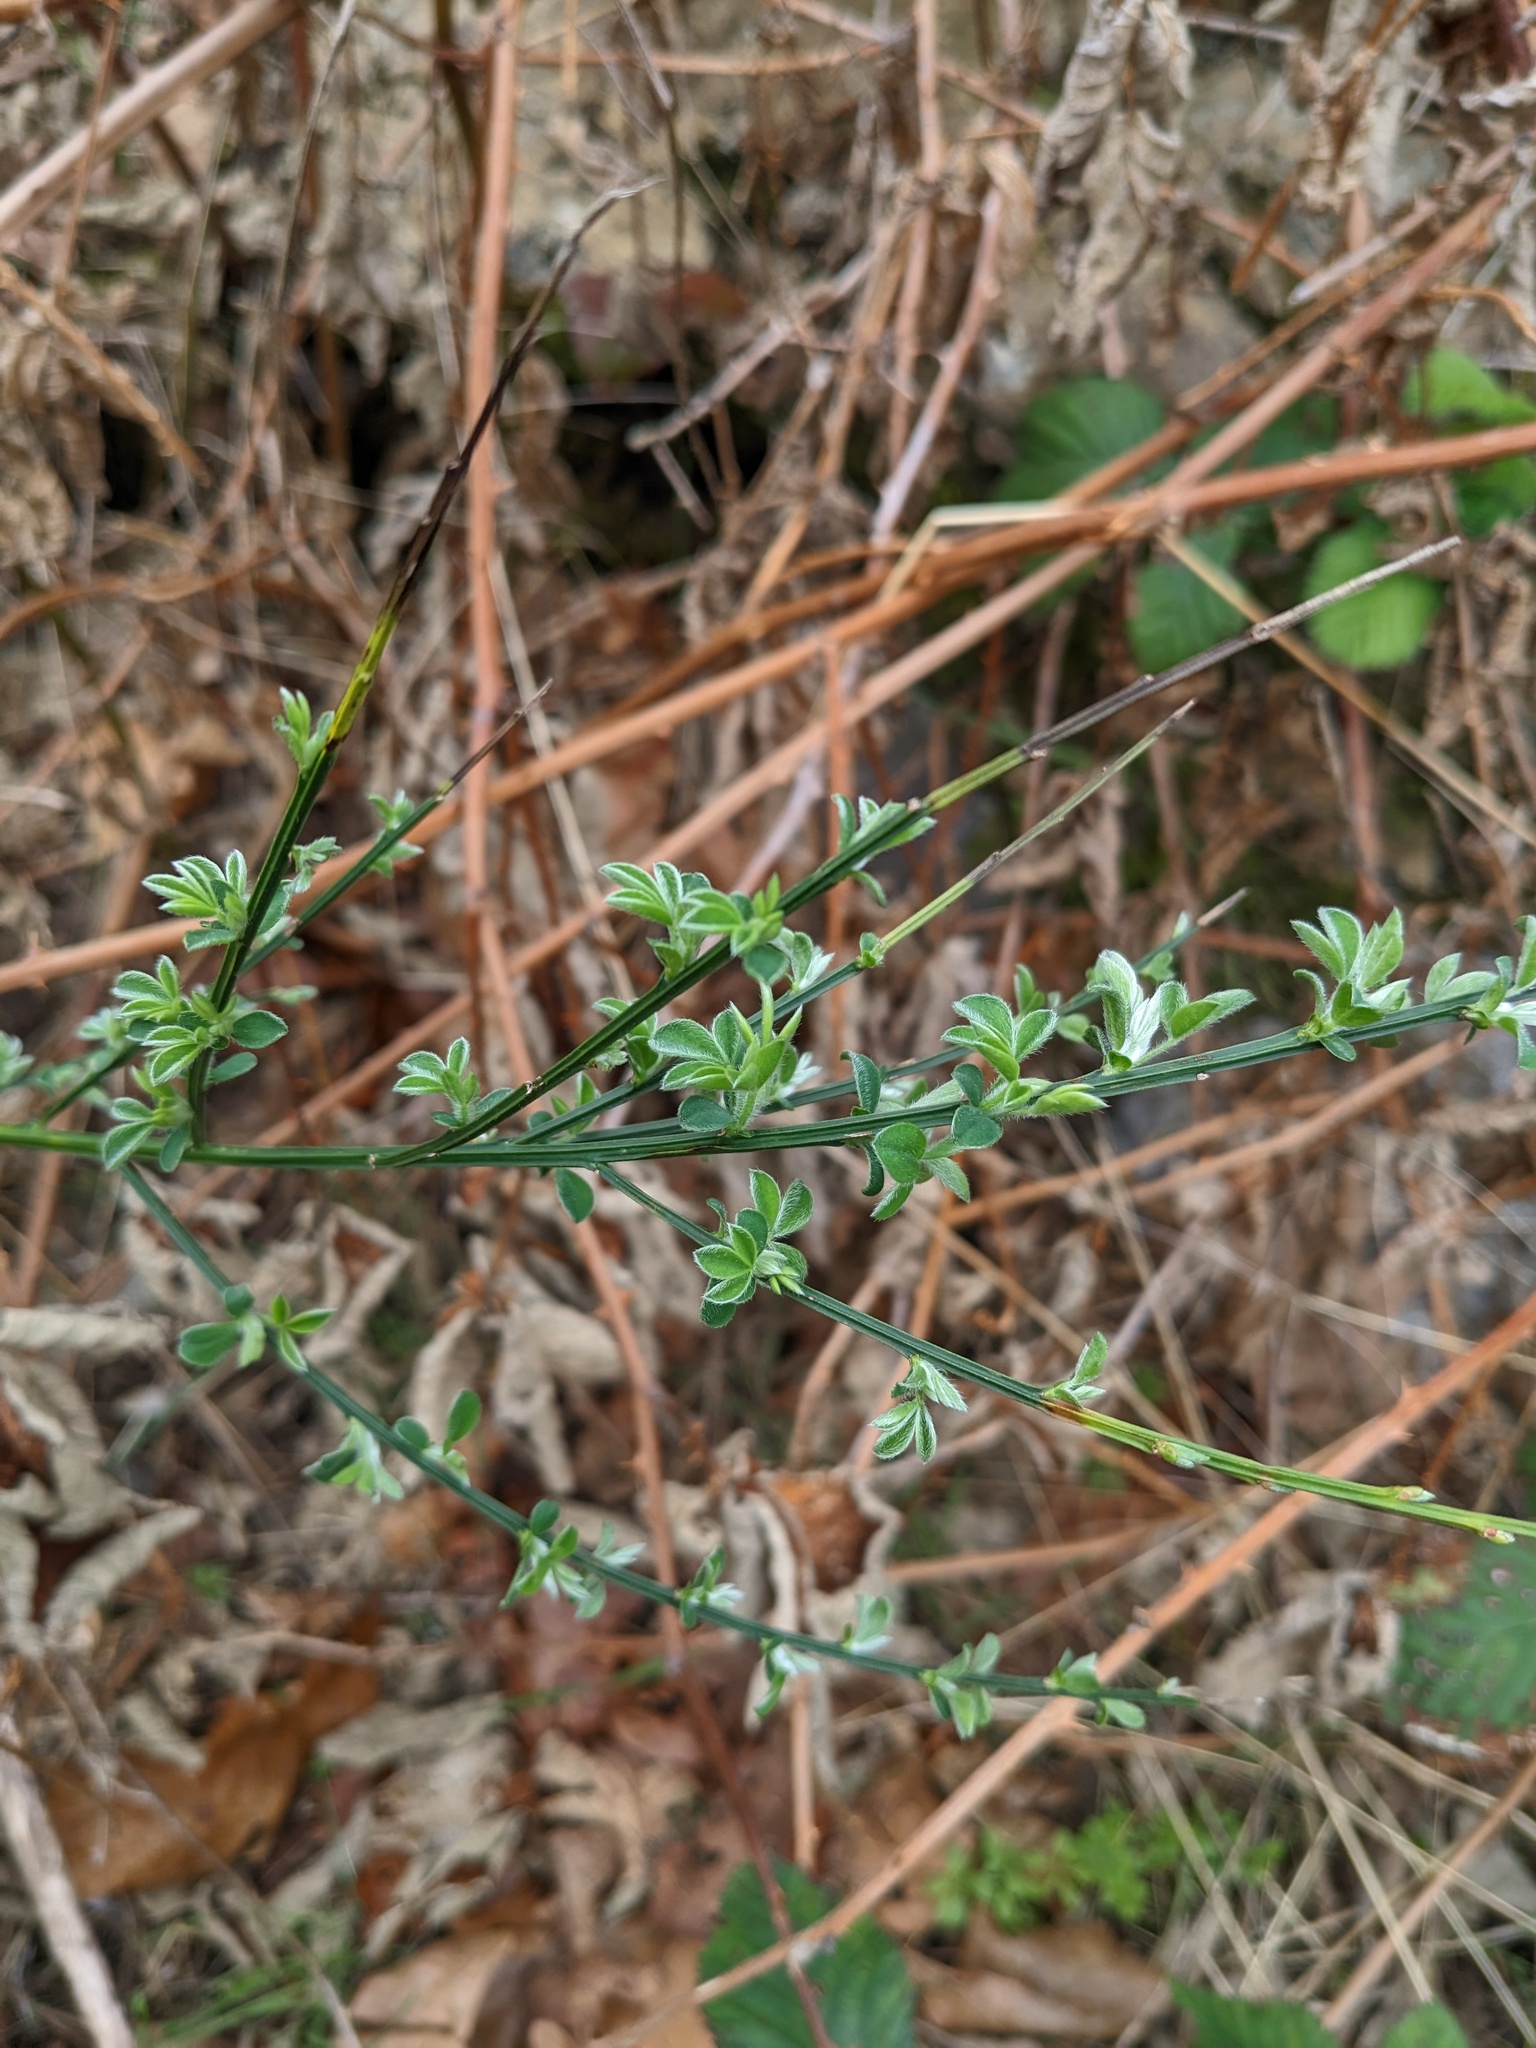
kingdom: Plantae
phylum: Tracheophyta
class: Magnoliopsida
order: Fabales
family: Fabaceae
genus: Cytisus
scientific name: Cytisus scoparius
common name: Scotch broom
